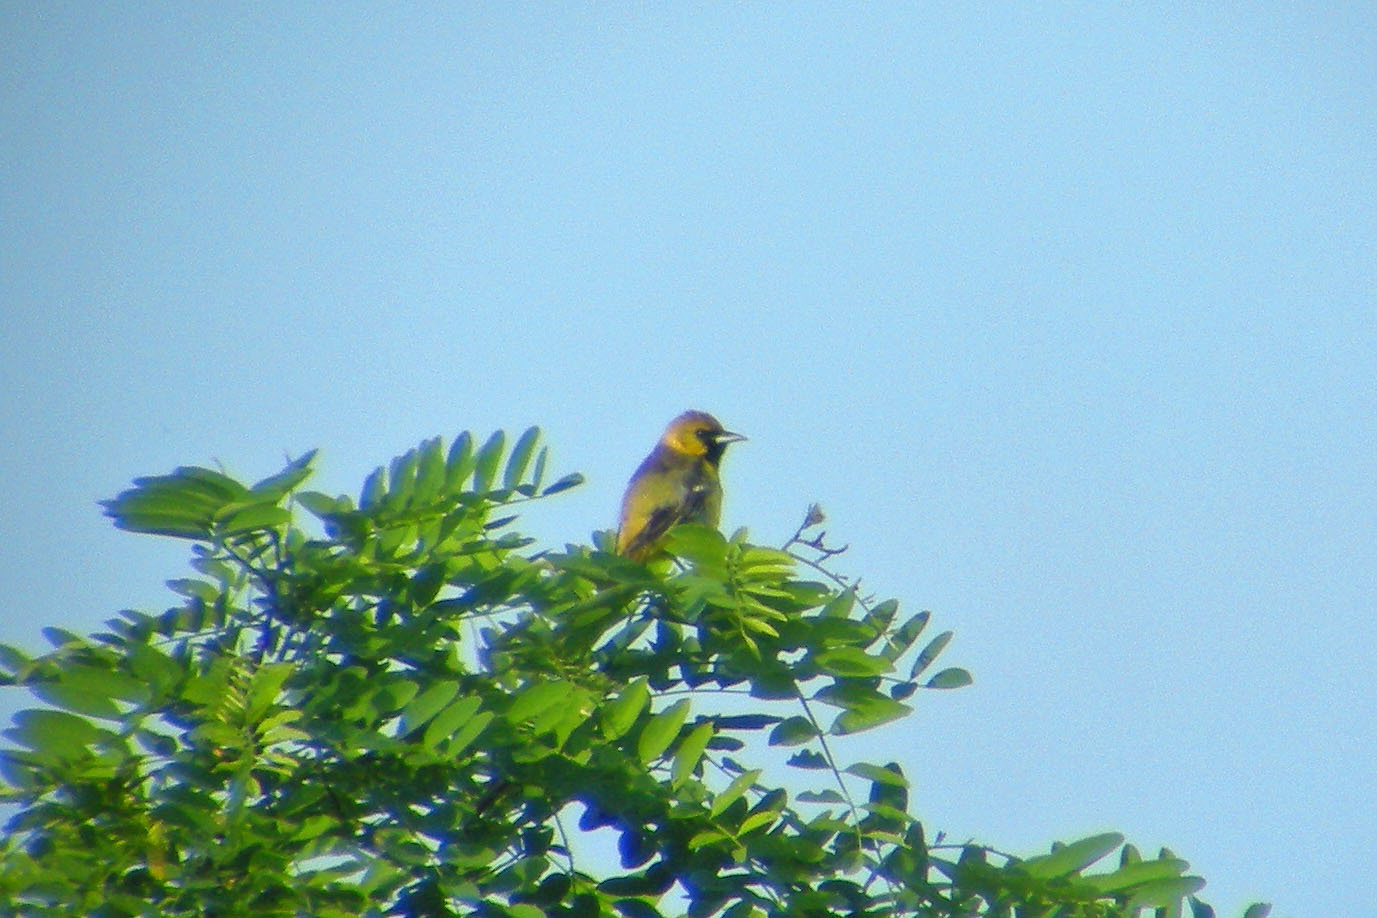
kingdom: Animalia
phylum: Chordata
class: Aves
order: Passeriformes
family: Icteridae
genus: Icterus
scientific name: Icterus spurius
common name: Orchard oriole
